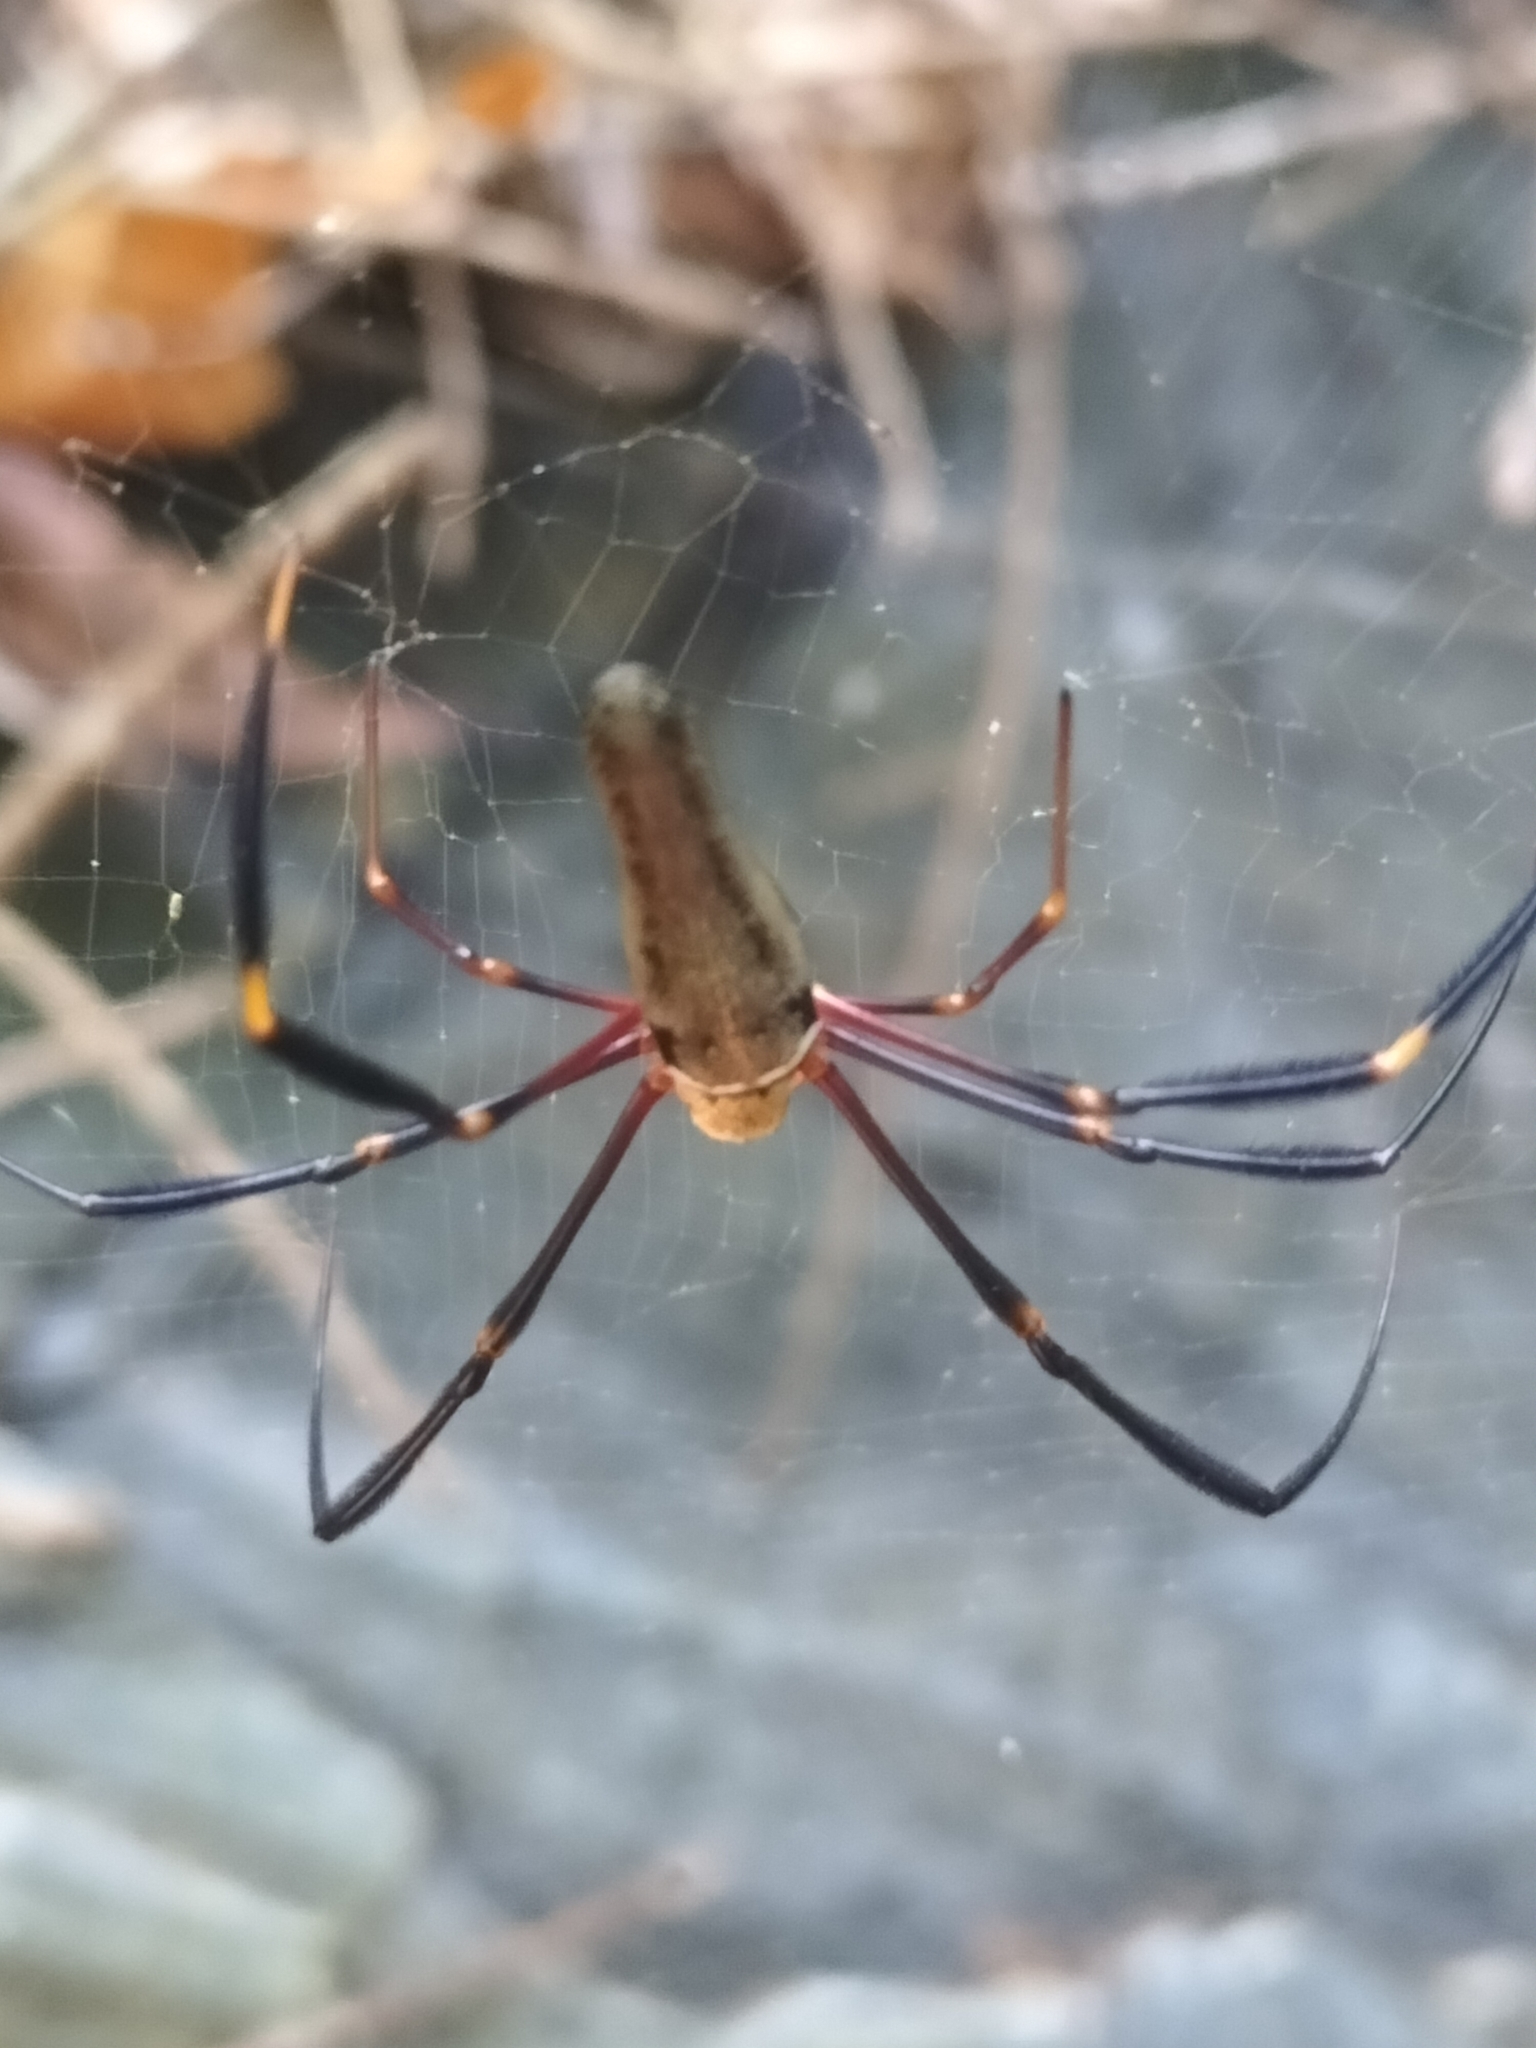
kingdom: Animalia
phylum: Arthropoda
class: Arachnida
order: Araneae
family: Araneidae
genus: Nephila
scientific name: Nephila pilipes
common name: Giant golden orb weaver
